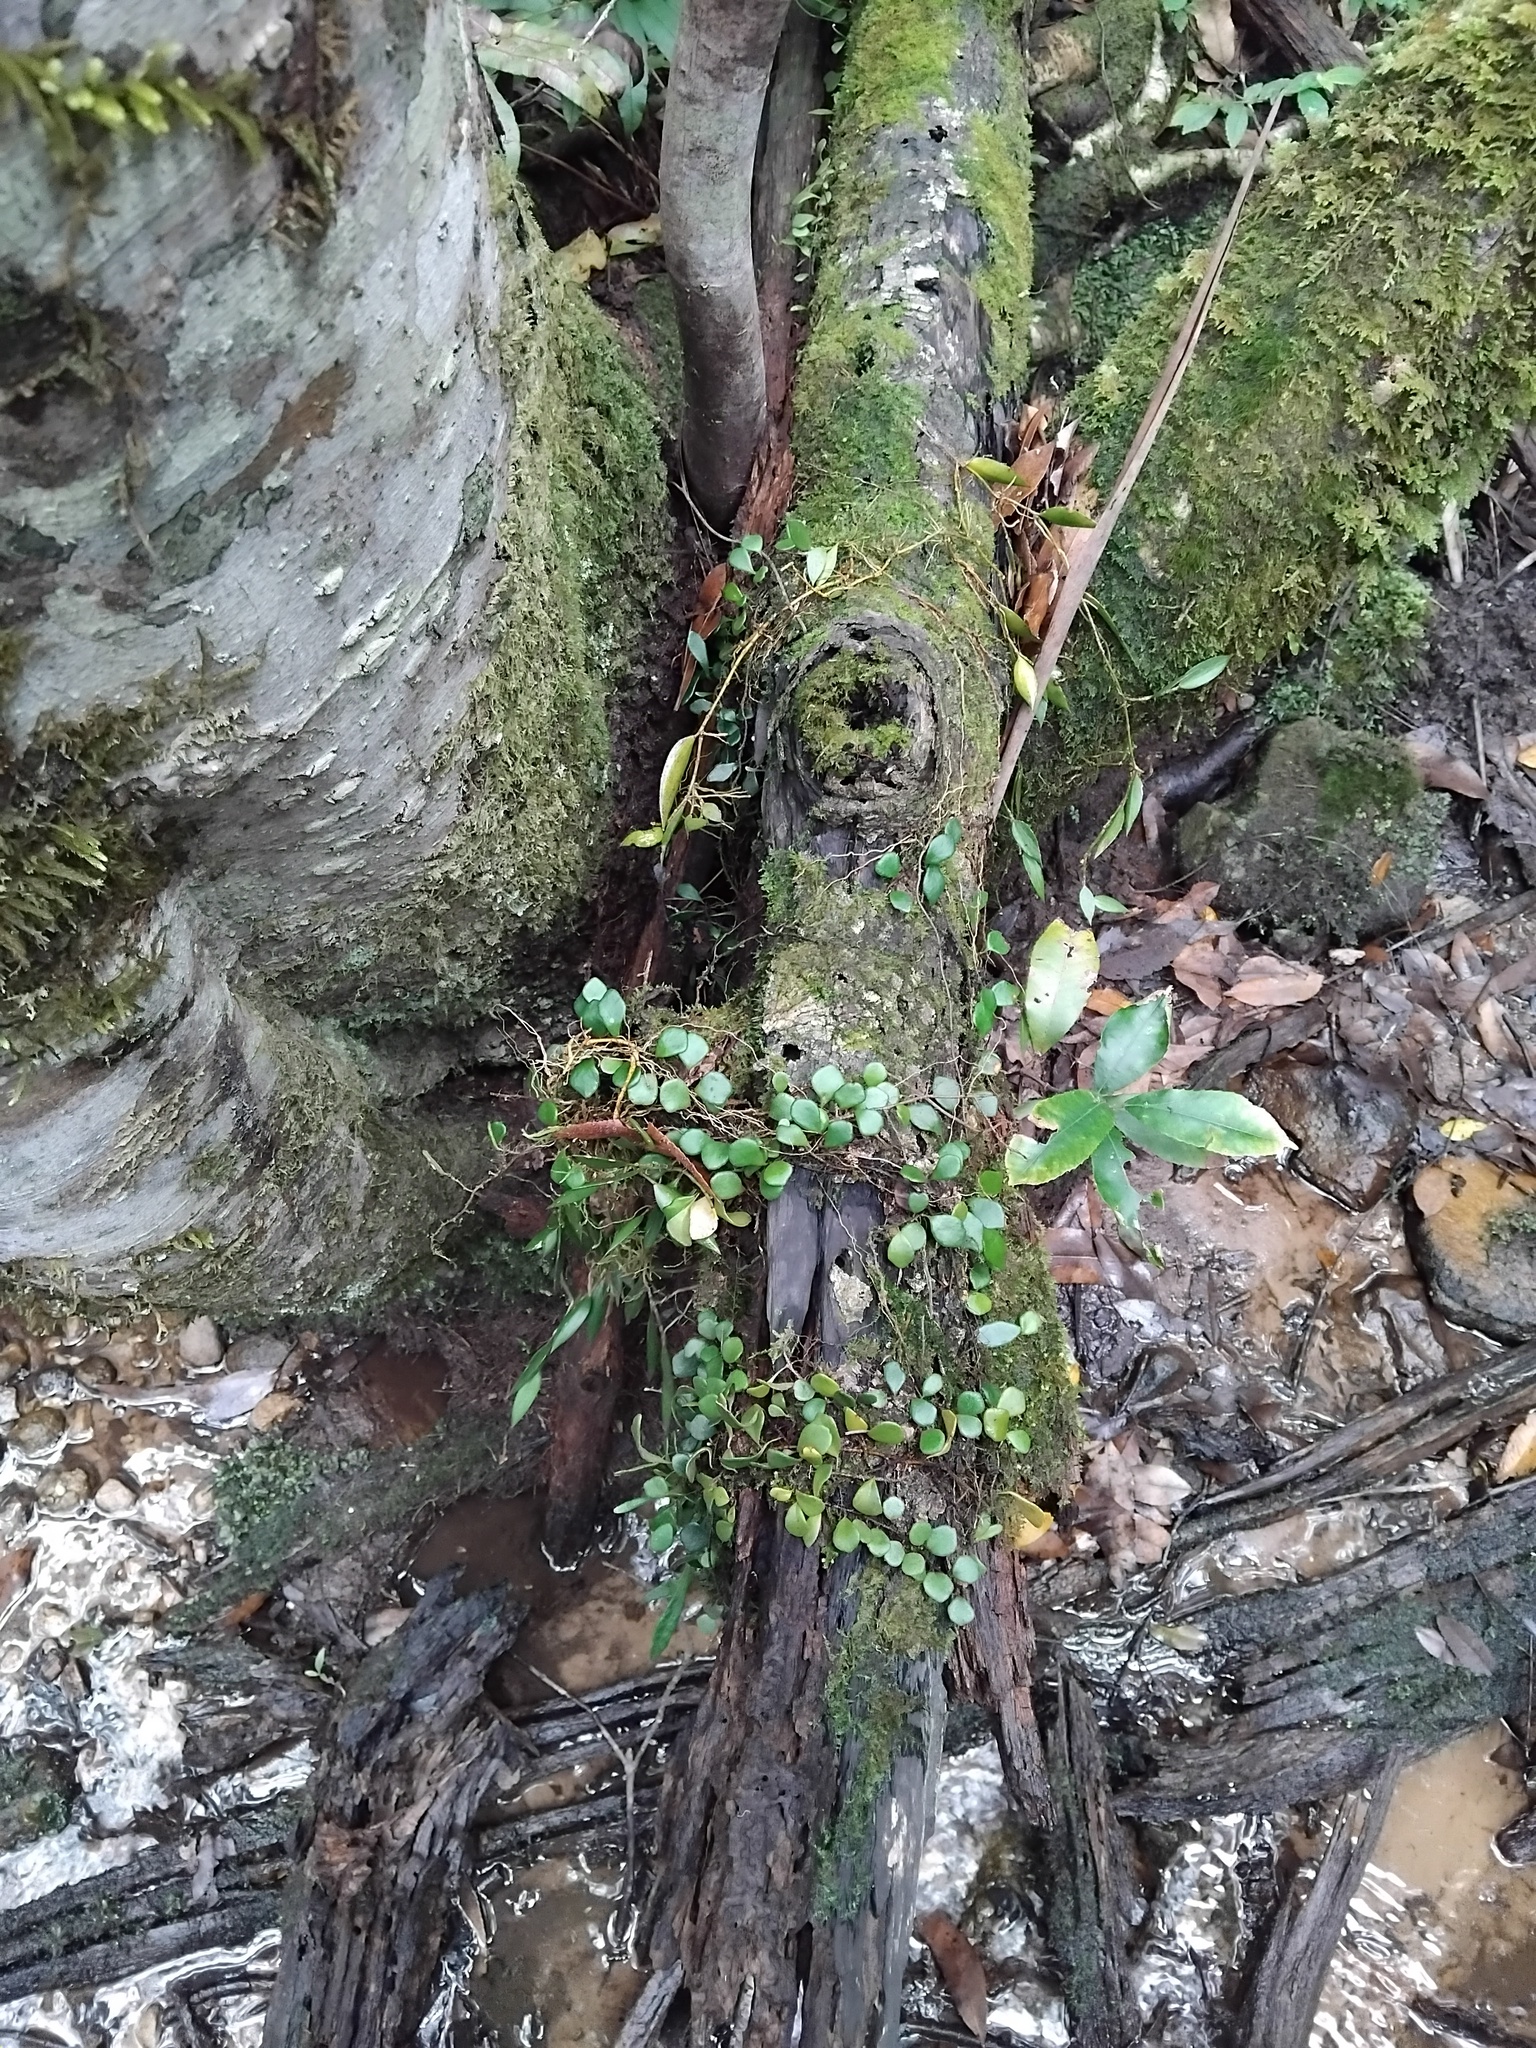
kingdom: Plantae
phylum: Tracheophyta
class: Liliopsida
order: Asparagales
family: Orchidaceae
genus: Dendrobium
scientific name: Dendrobium pugioniforme
